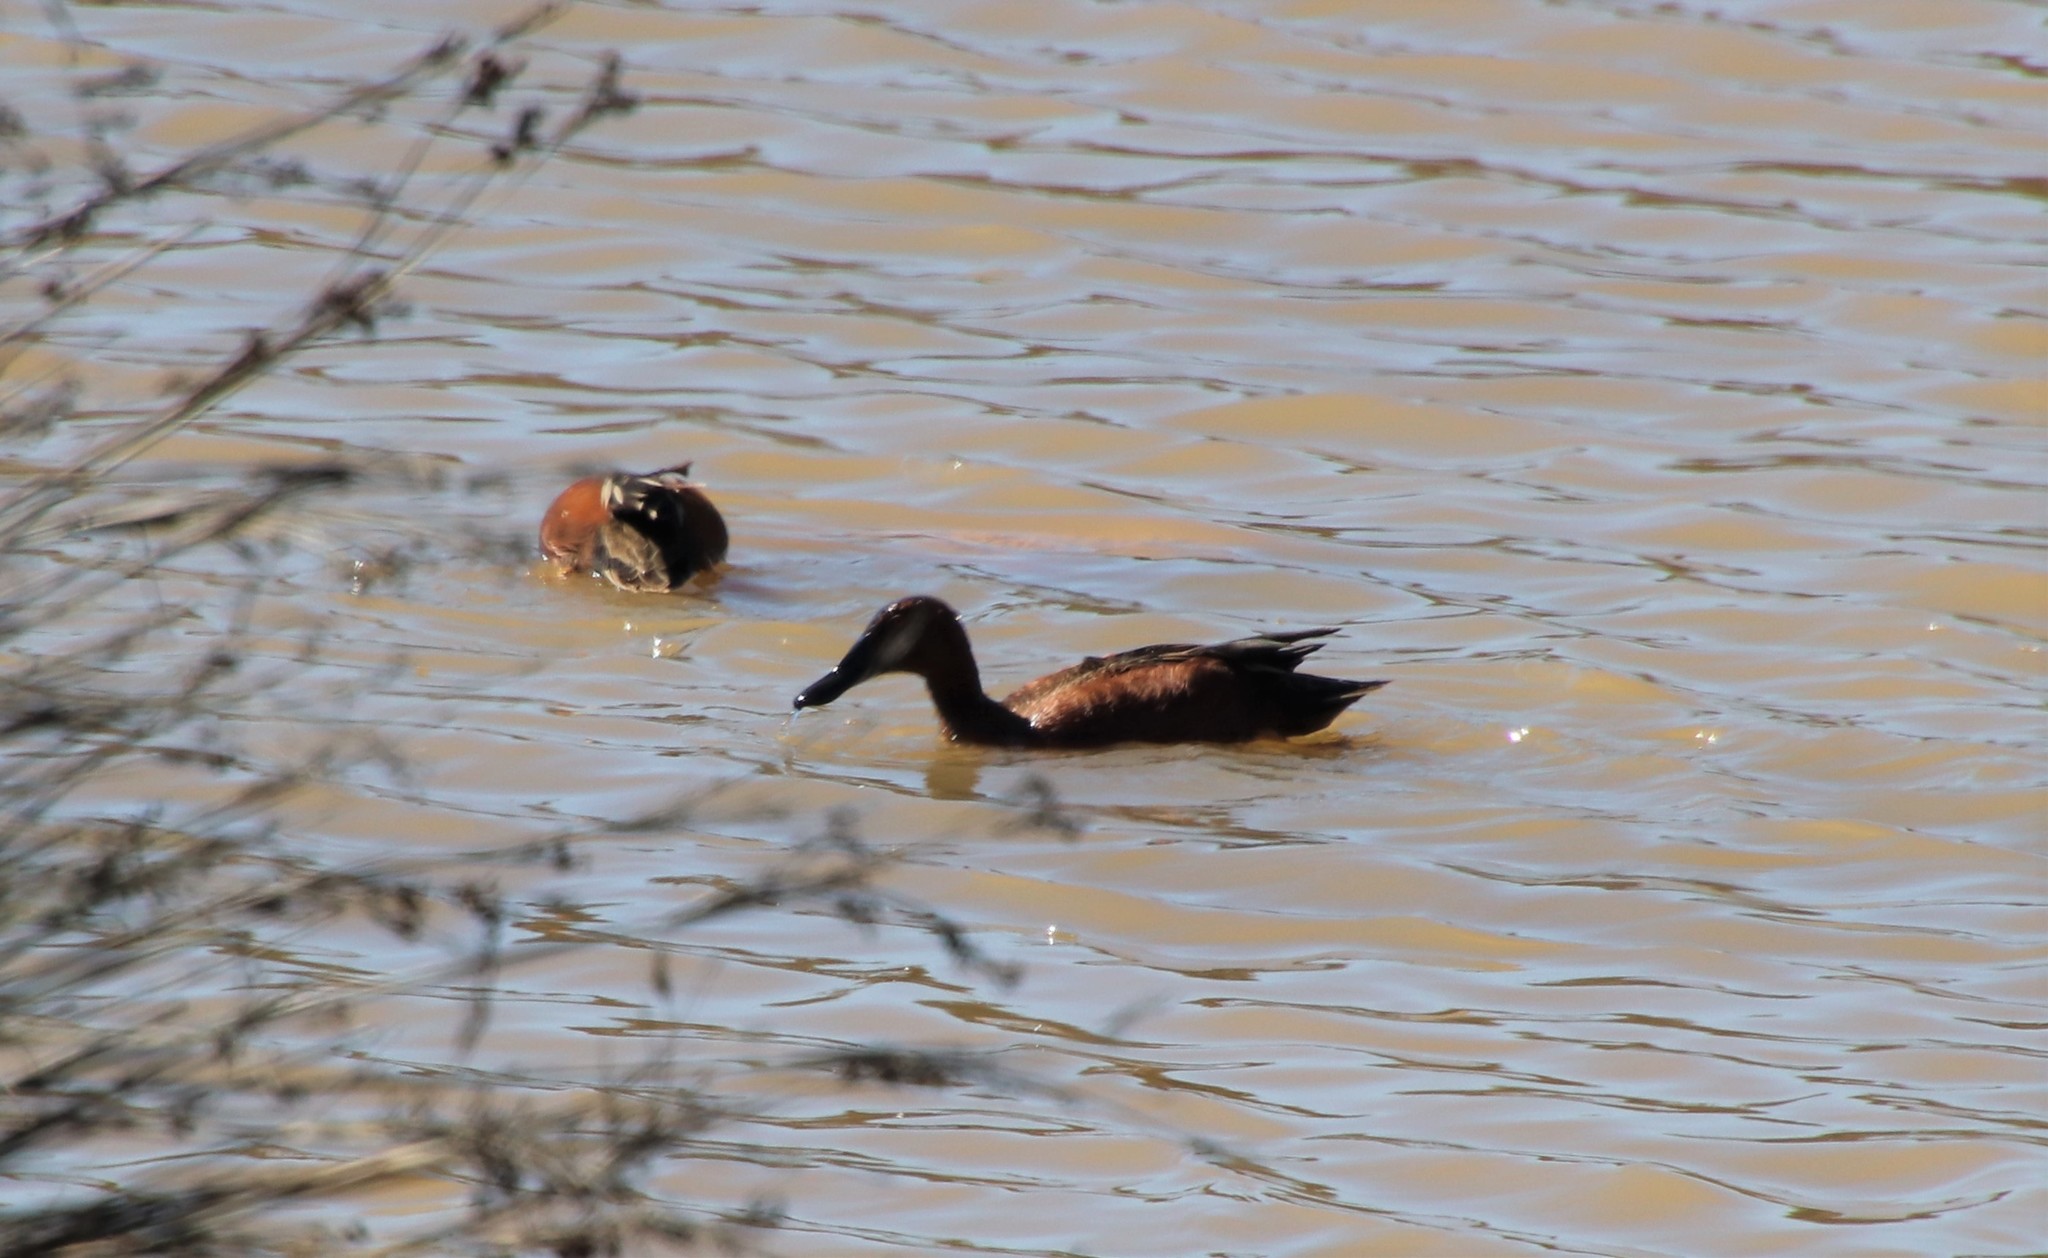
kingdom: Animalia
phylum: Chordata
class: Aves
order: Anseriformes
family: Anatidae
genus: Spatula
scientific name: Spatula cyanoptera
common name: Cinnamon teal
